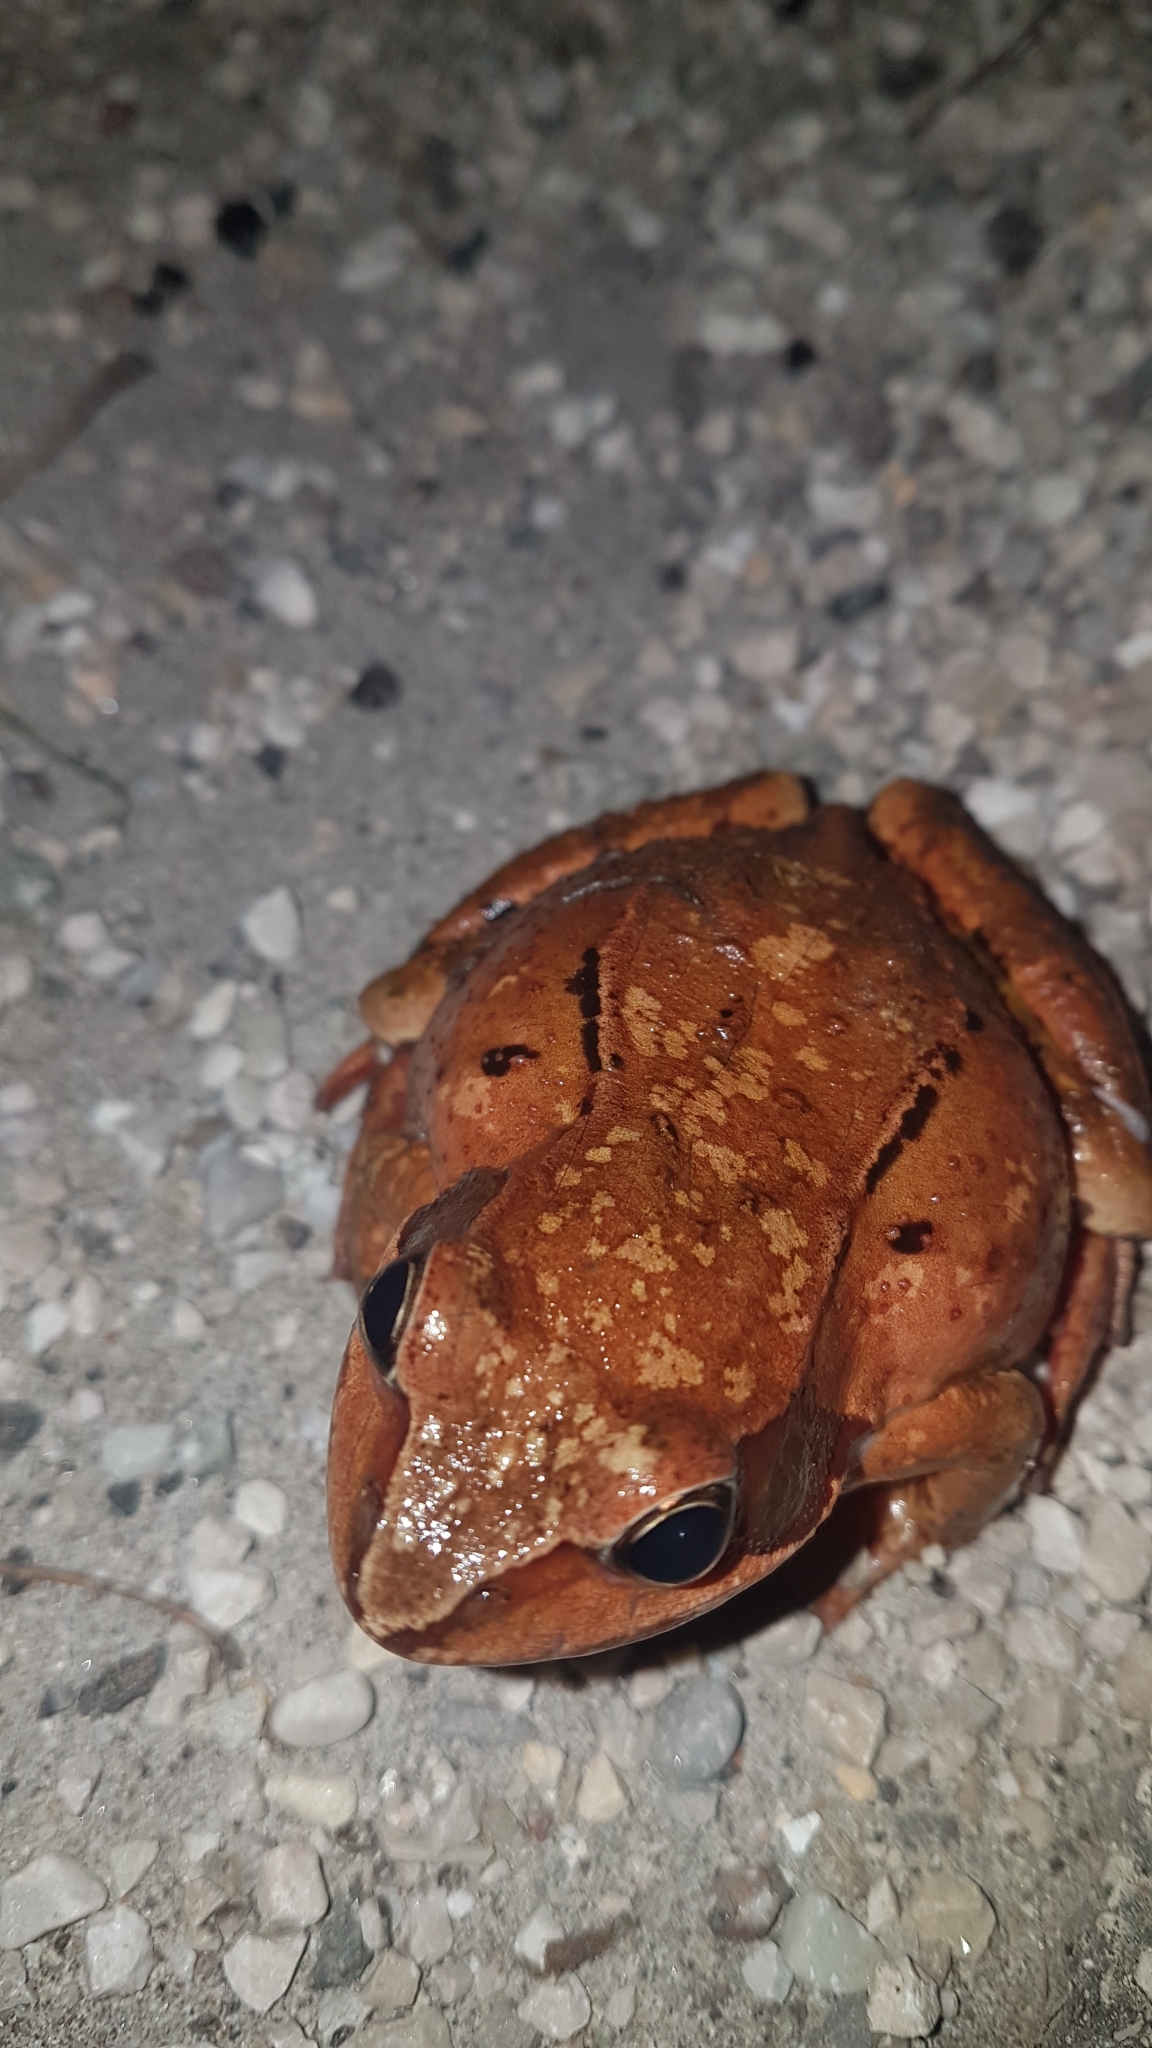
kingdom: Animalia
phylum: Chordata
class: Amphibia
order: Anura
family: Ranidae
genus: Rana
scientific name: Rana temporaria
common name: Common frog
